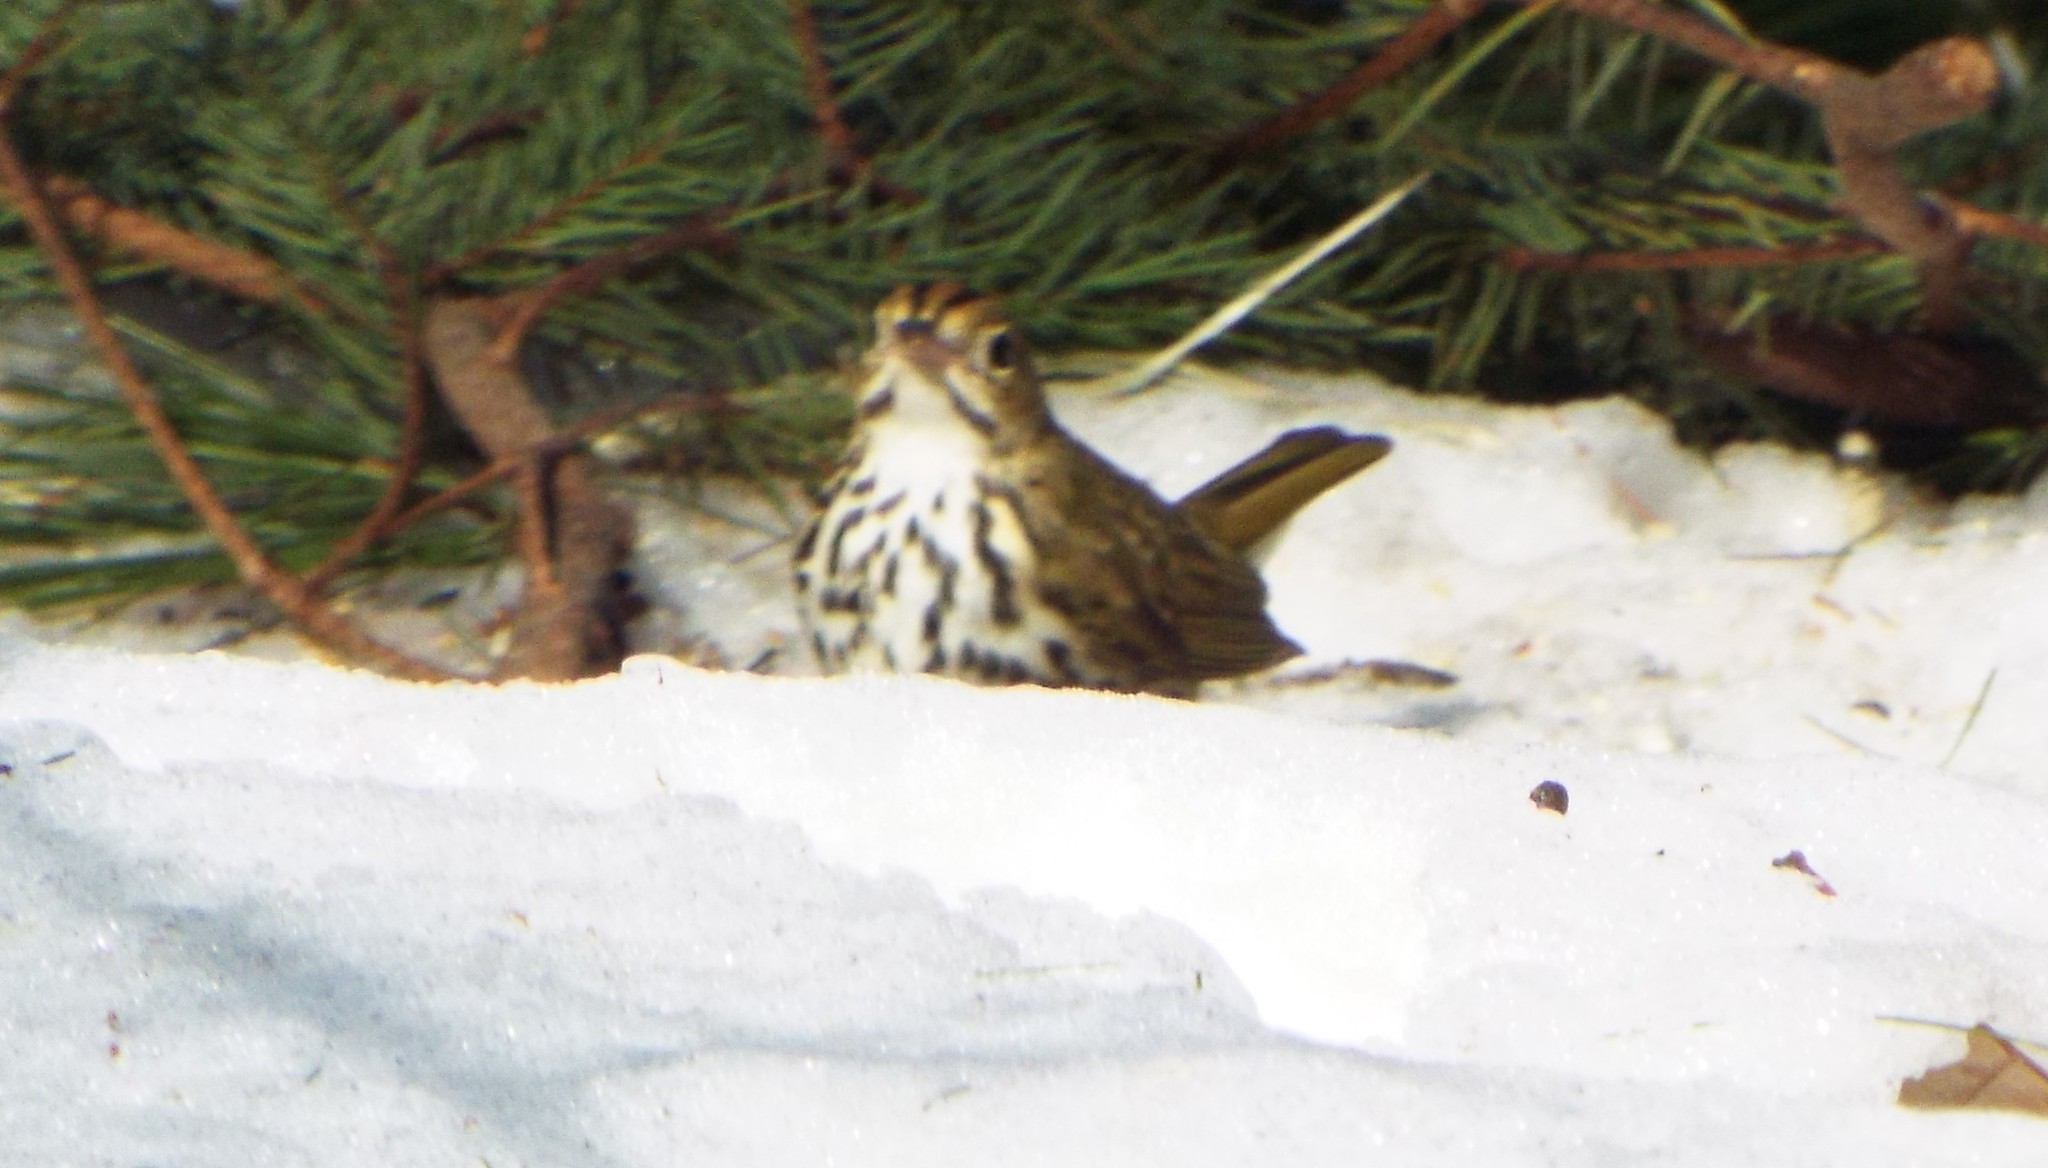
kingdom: Animalia
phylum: Chordata
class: Aves
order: Passeriformes
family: Parulidae
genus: Seiurus
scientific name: Seiurus aurocapilla
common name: Ovenbird
